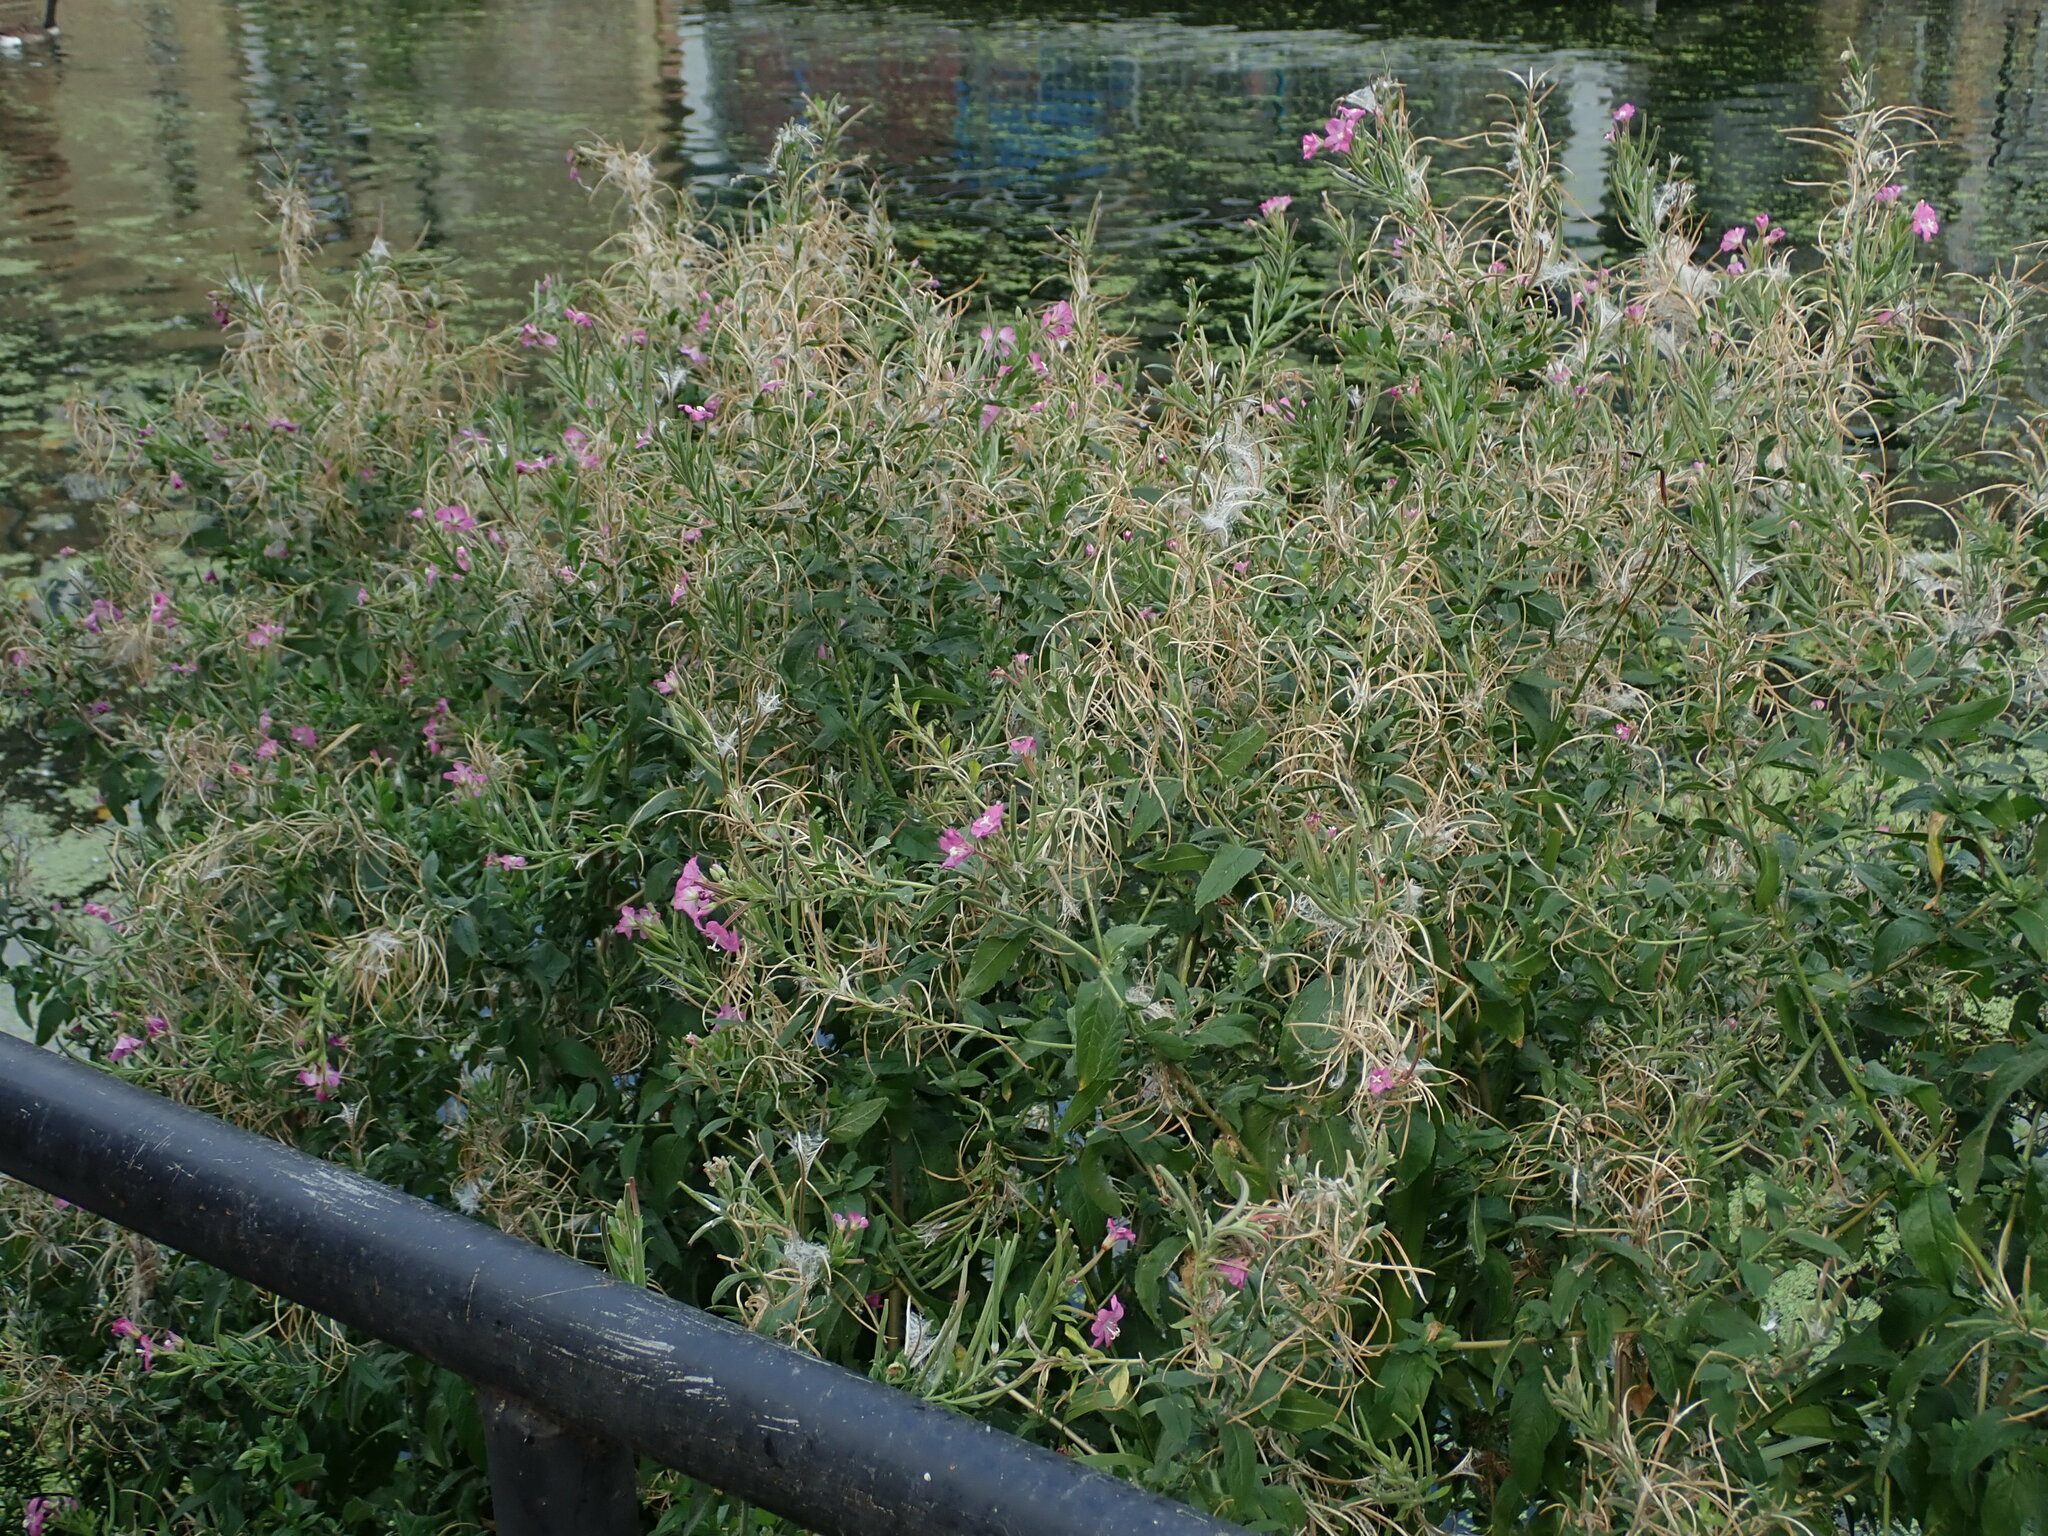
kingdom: Plantae
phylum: Tracheophyta
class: Magnoliopsida
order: Myrtales
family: Onagraceae
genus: Epilobium
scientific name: Epilobium hirsutum
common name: Great willowherb
